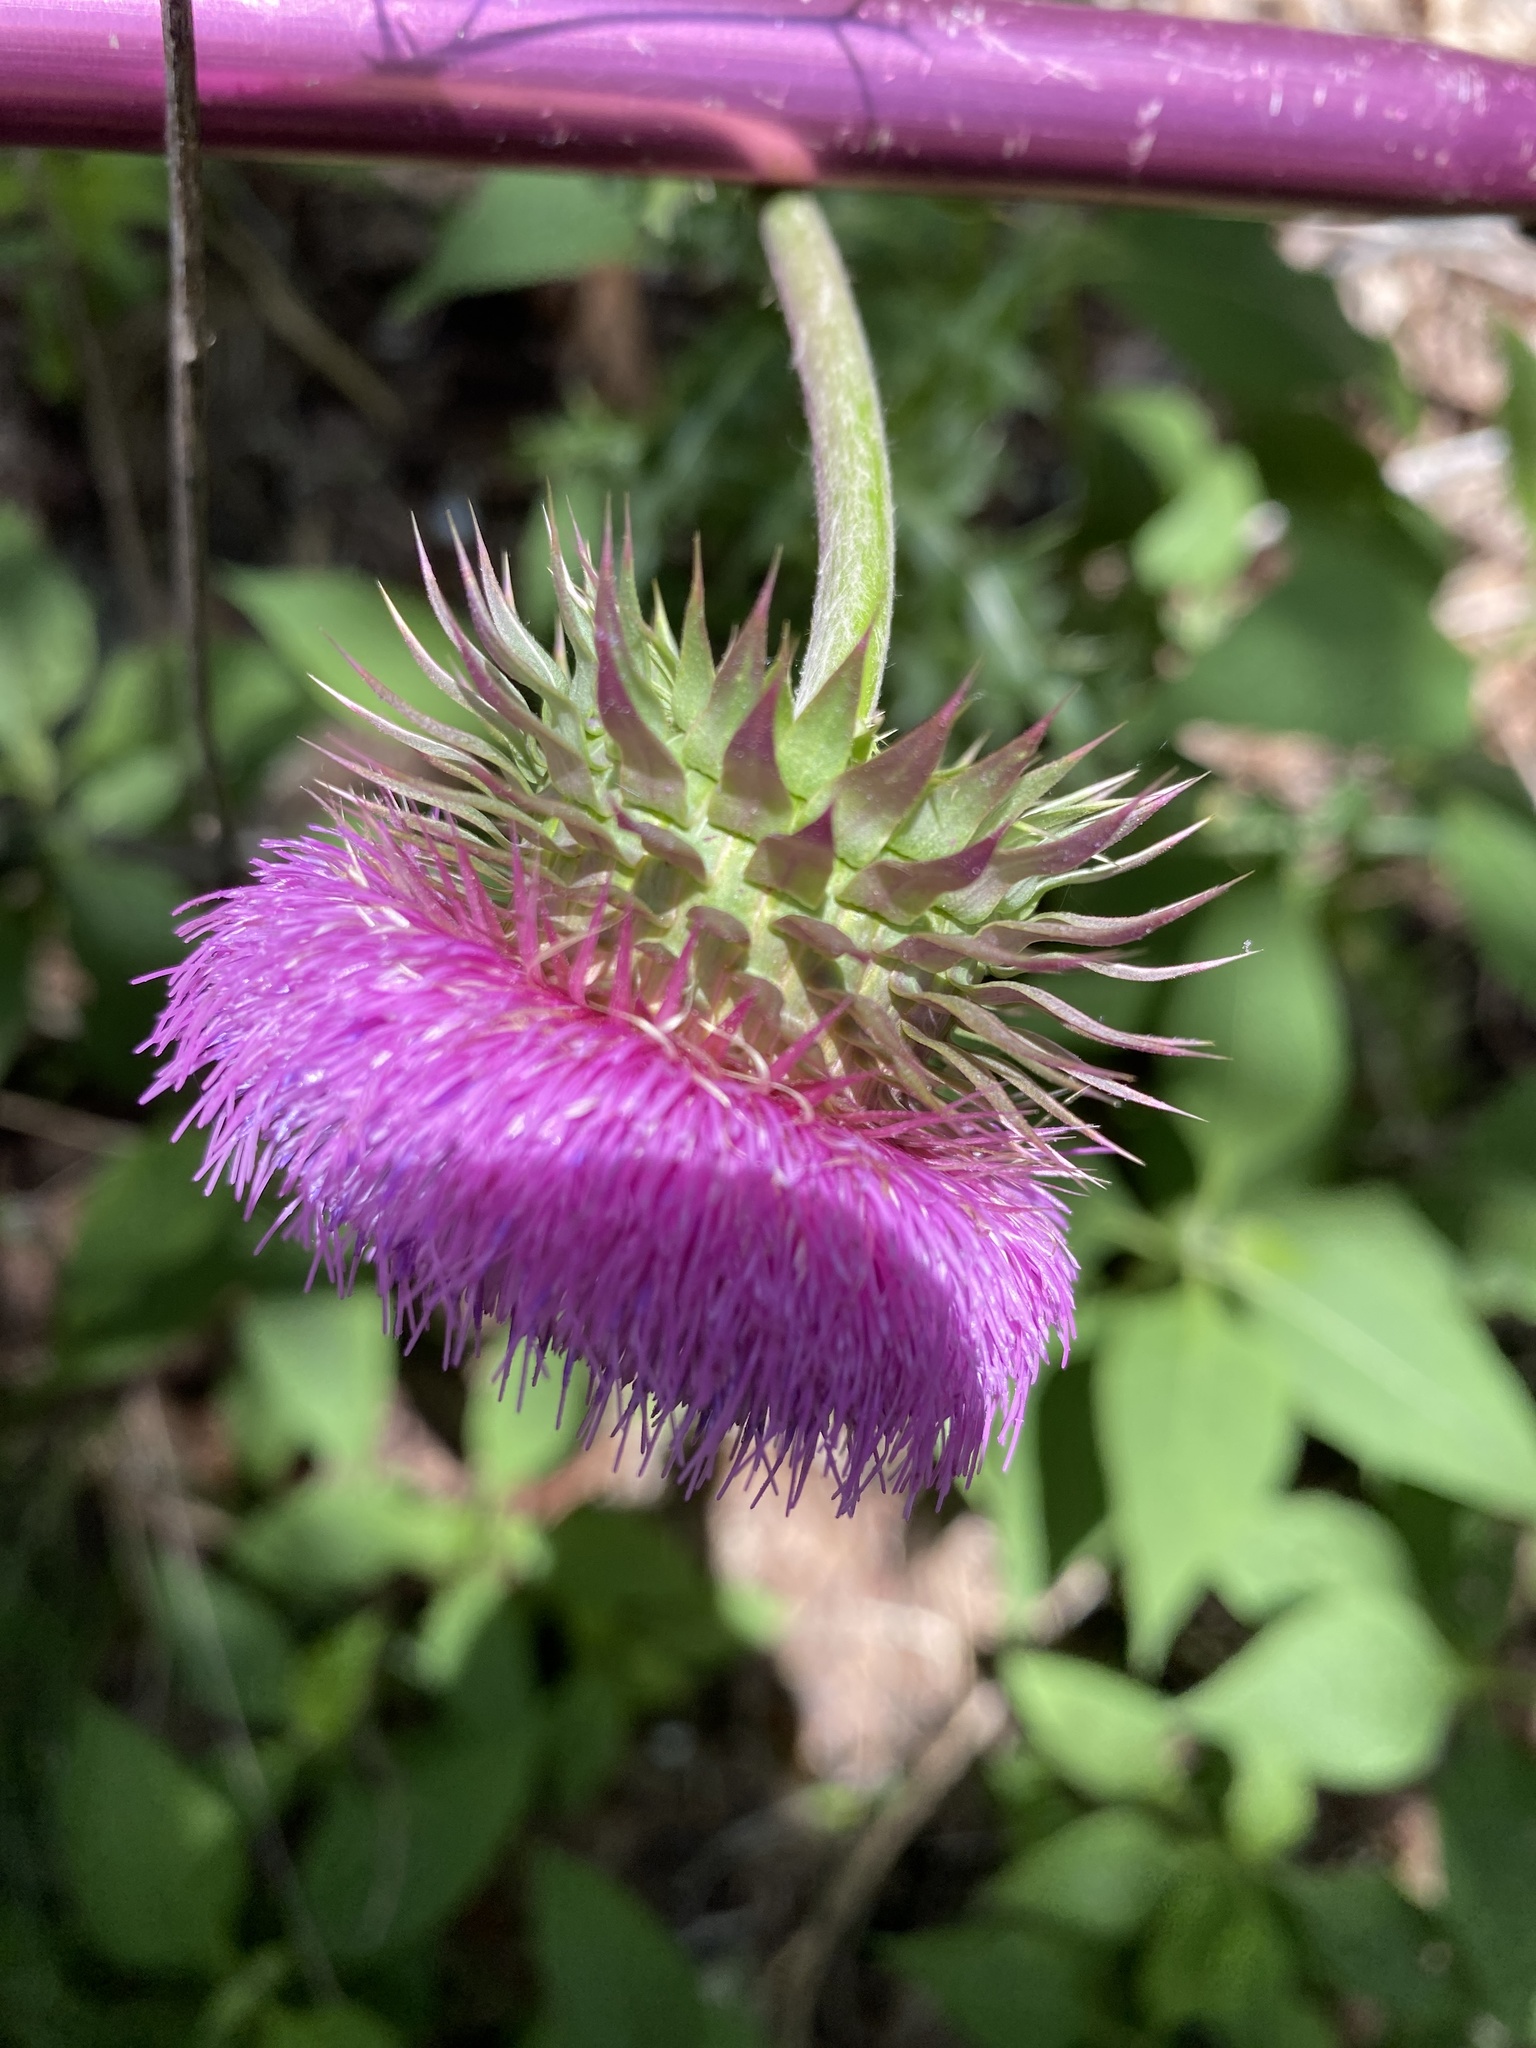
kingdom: Plantae
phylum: Tracheophyta
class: Magnoliopsida
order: Asterales
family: Asteraceae
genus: Carduus
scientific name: Carduus nutans
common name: Musk thistle
